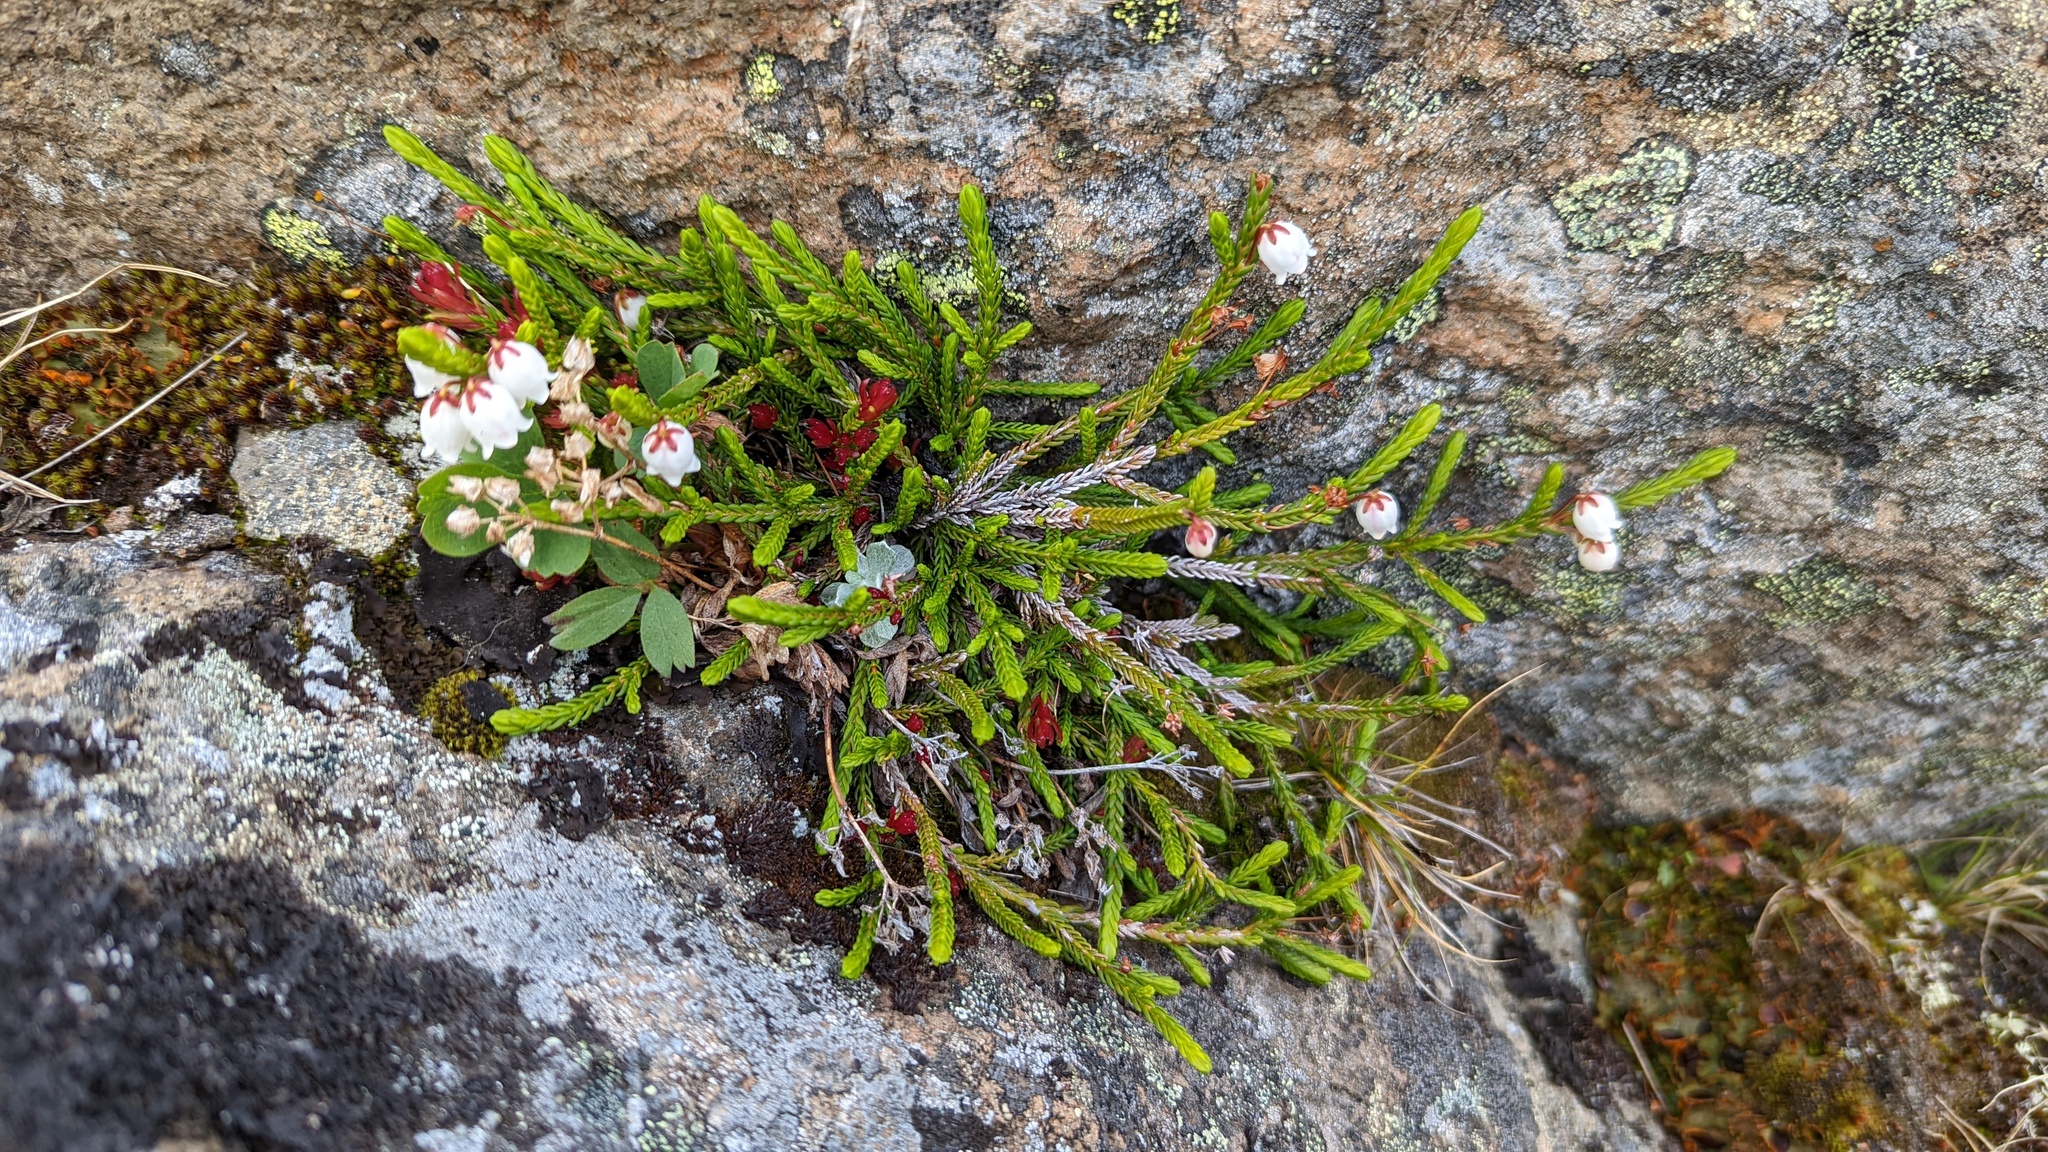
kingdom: Fungi
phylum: Basidiomycota
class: Exobasidiomycetes
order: Exobasidiales
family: Exobasidiaceae
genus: Exobasidium
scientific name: Exobasidium cassiopes
